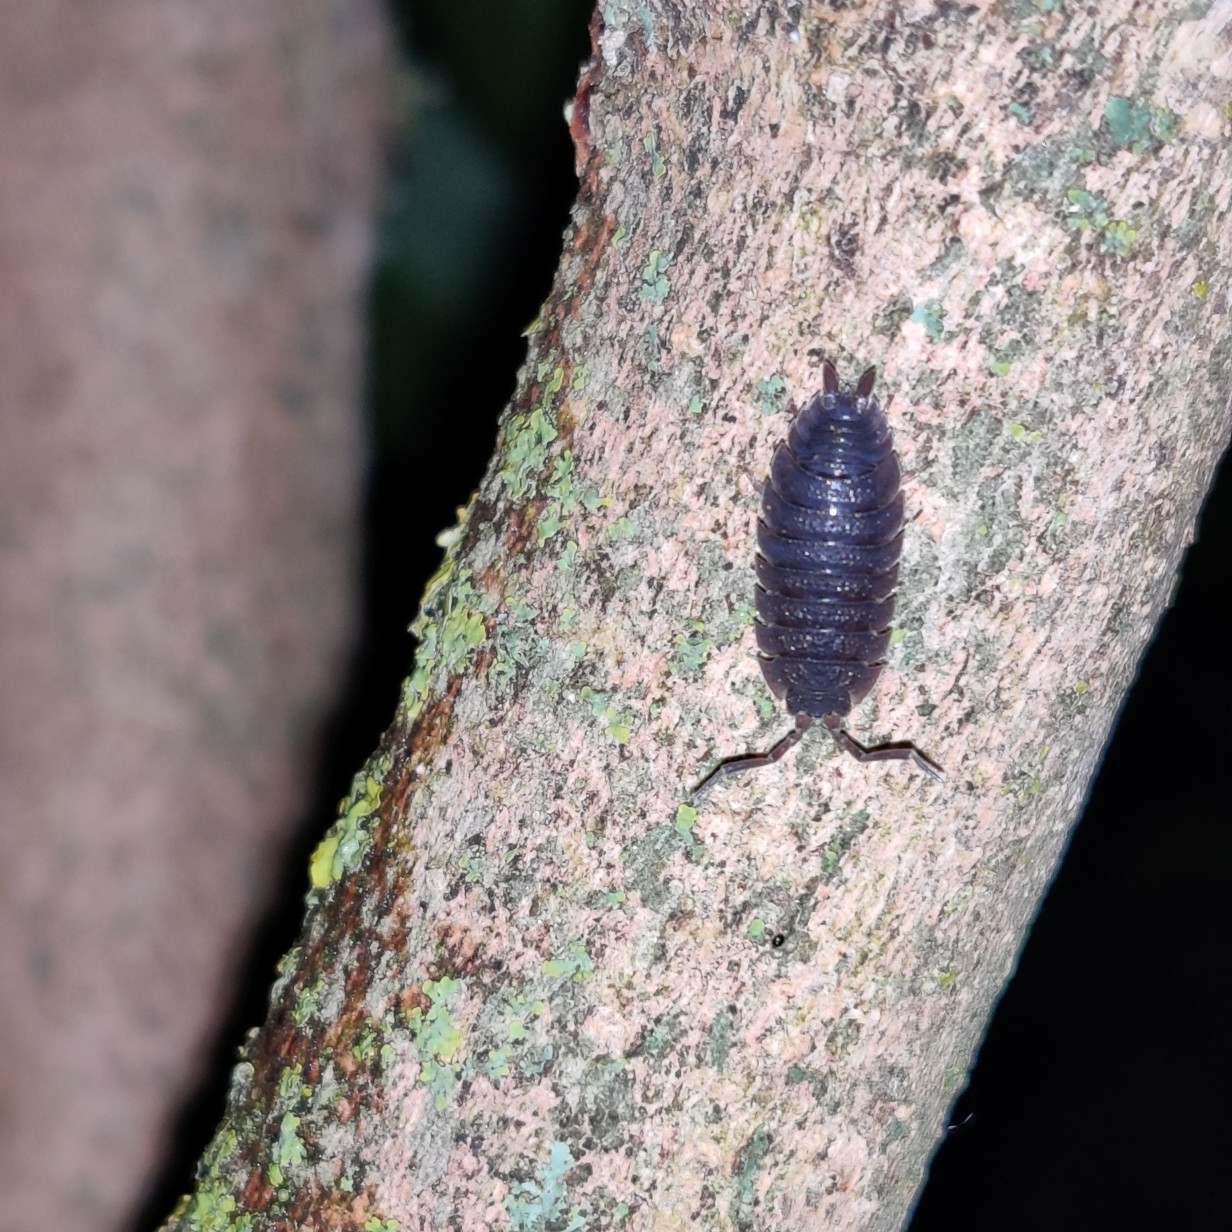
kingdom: Animalia
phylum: Arthropoda
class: Malacostraca
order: Isopoda
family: Porcellionidae
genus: Porcellio
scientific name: Porcellio scaber
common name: Common rough woodlouse
